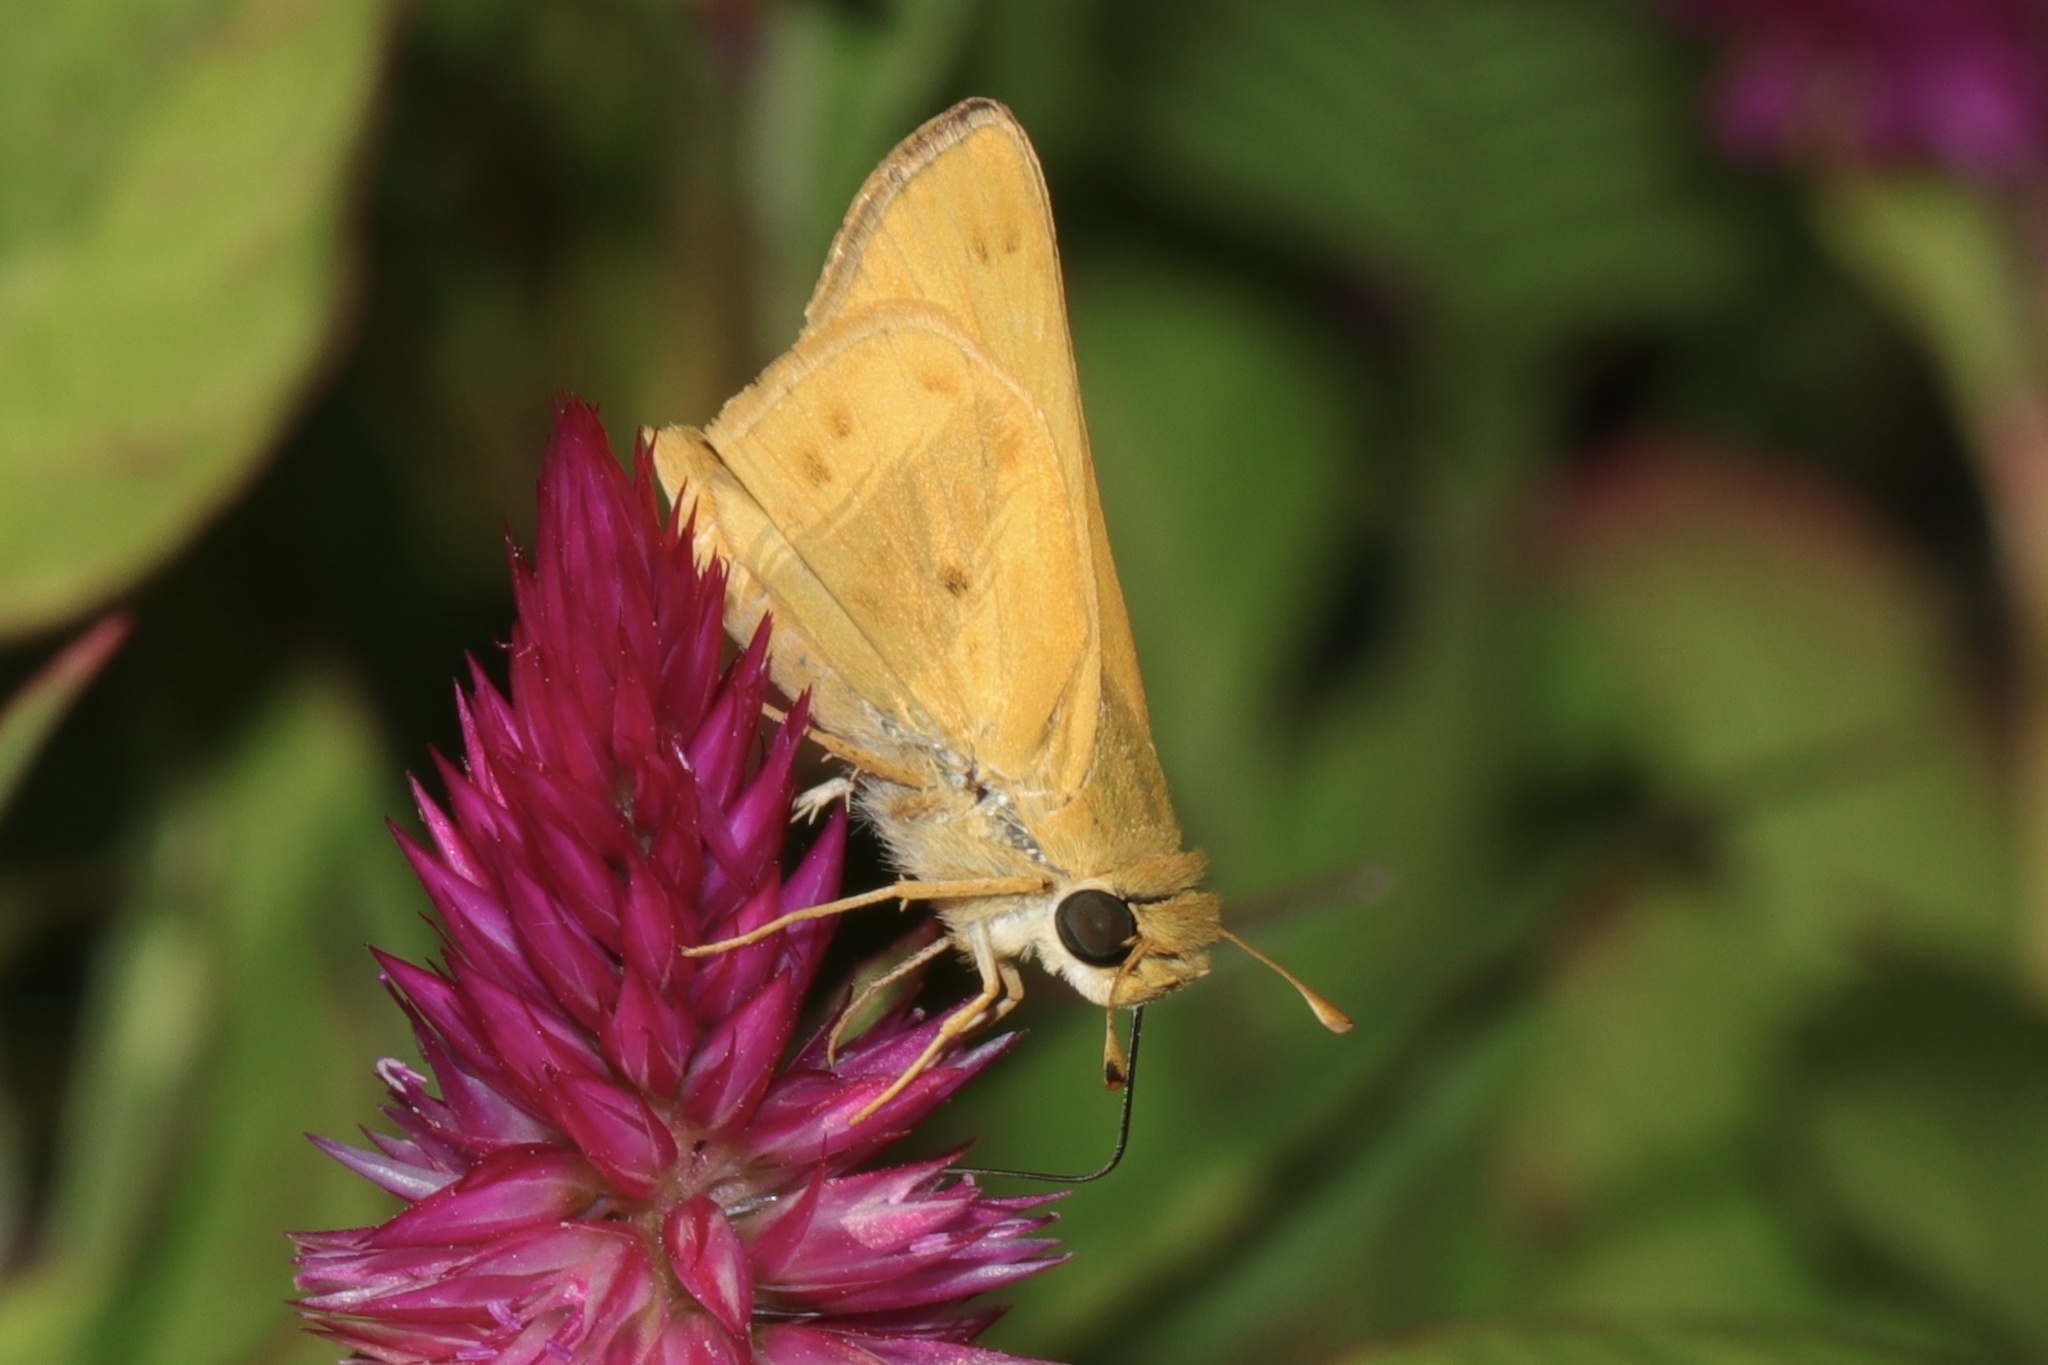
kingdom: Animalia
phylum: Arthropoda
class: Insecta
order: Lepidoptera
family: Hesperiidae
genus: Hylephila
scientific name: Hylephila phyleus
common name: Fiery skipper
